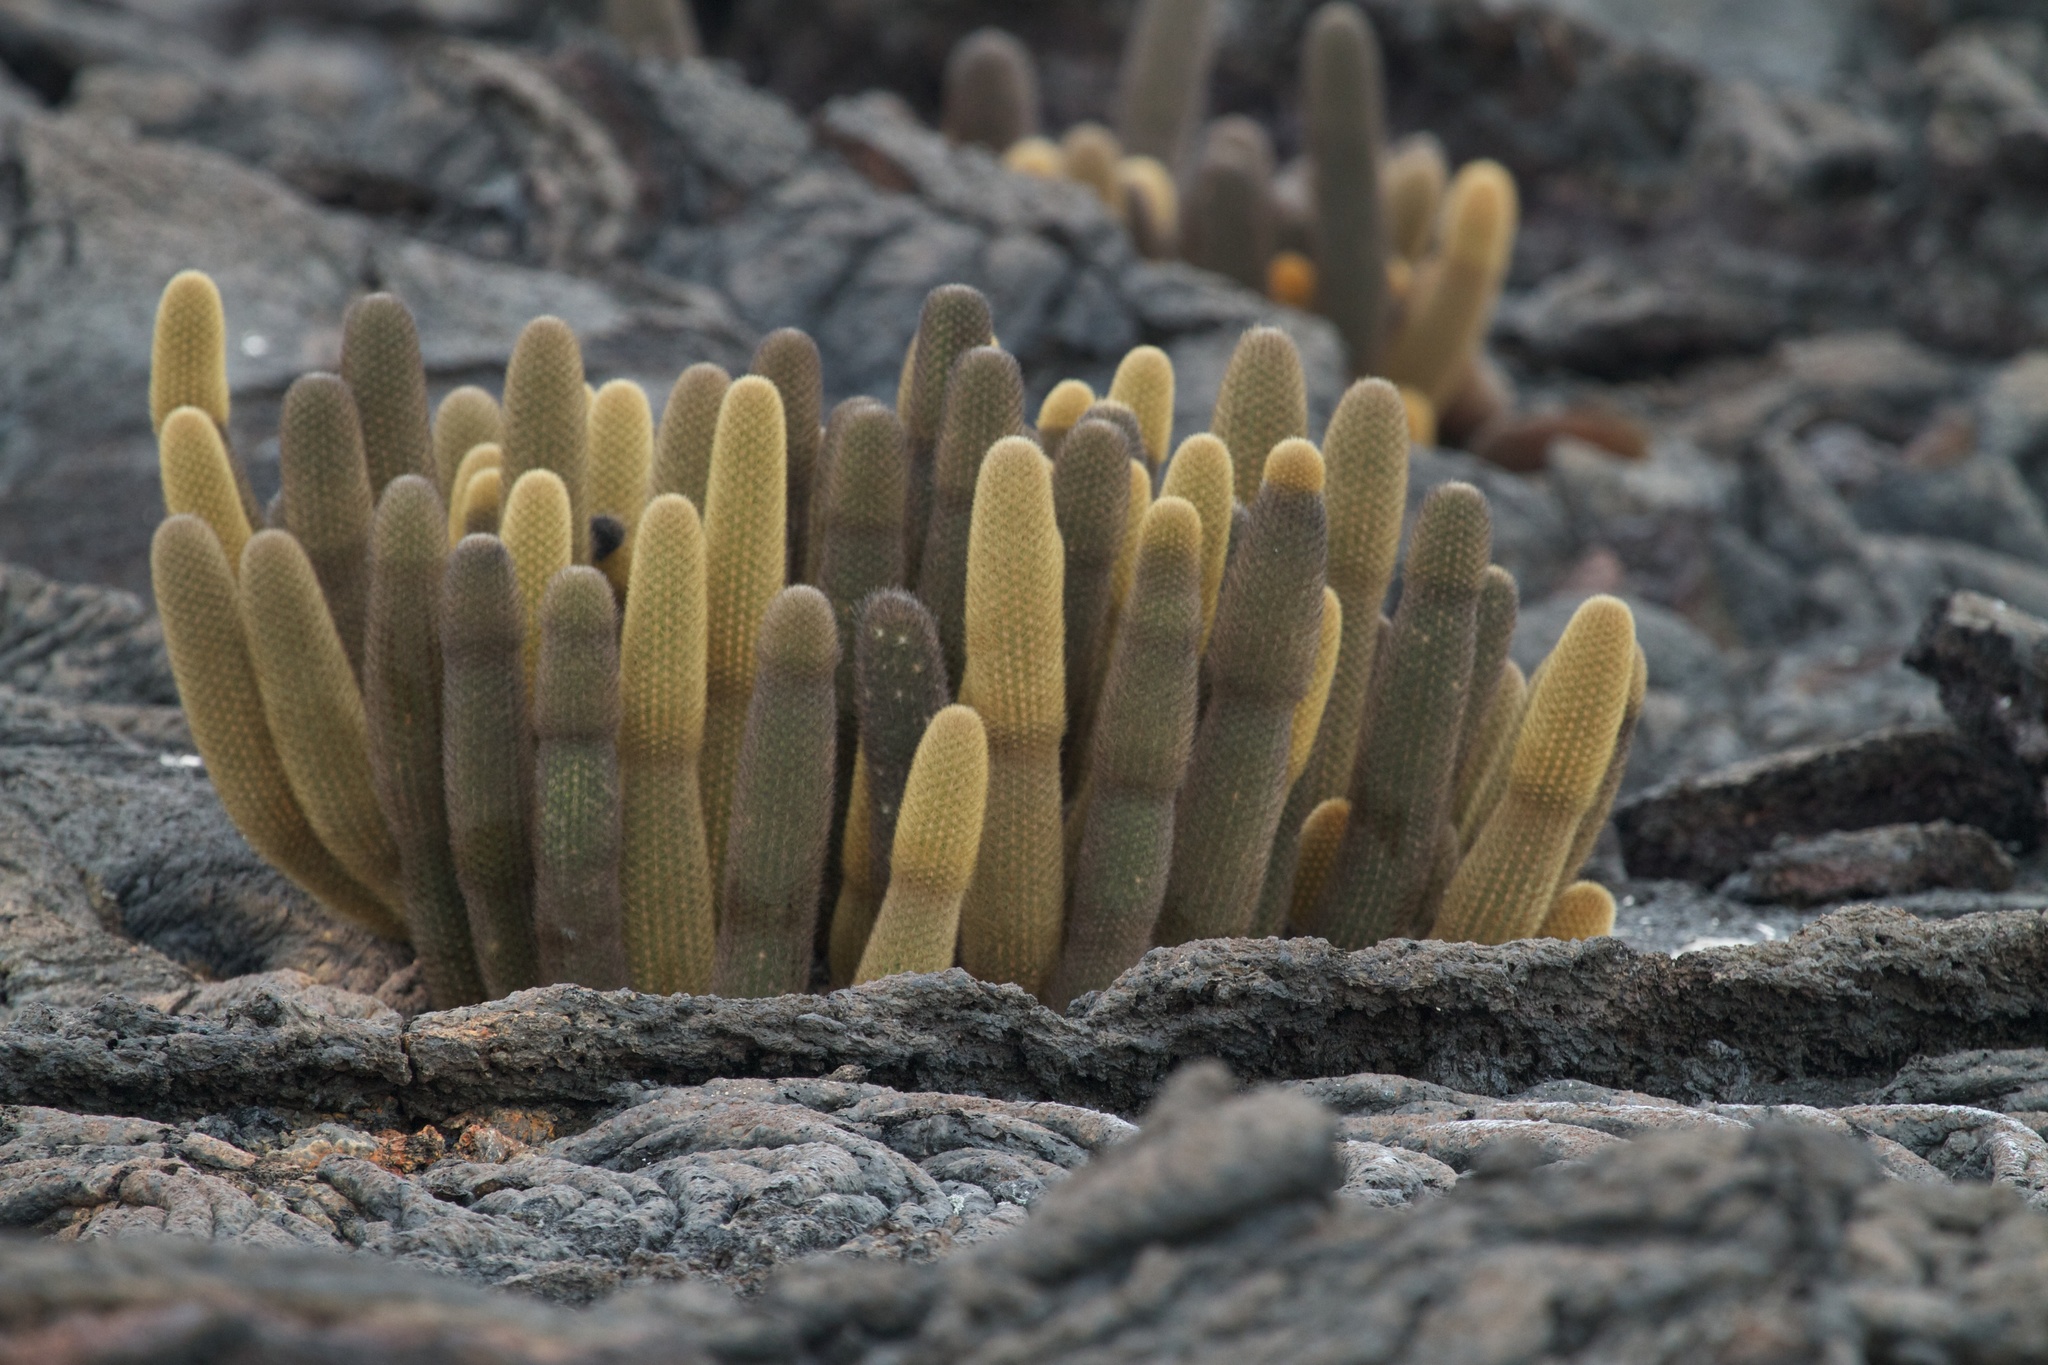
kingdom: Plantae
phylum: Tracheophyta
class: Magnoliopsida
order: Caryophyllales
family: Cactaceae
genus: Brachycereus
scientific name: Brachycereus nesioticus
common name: Lava cactus
